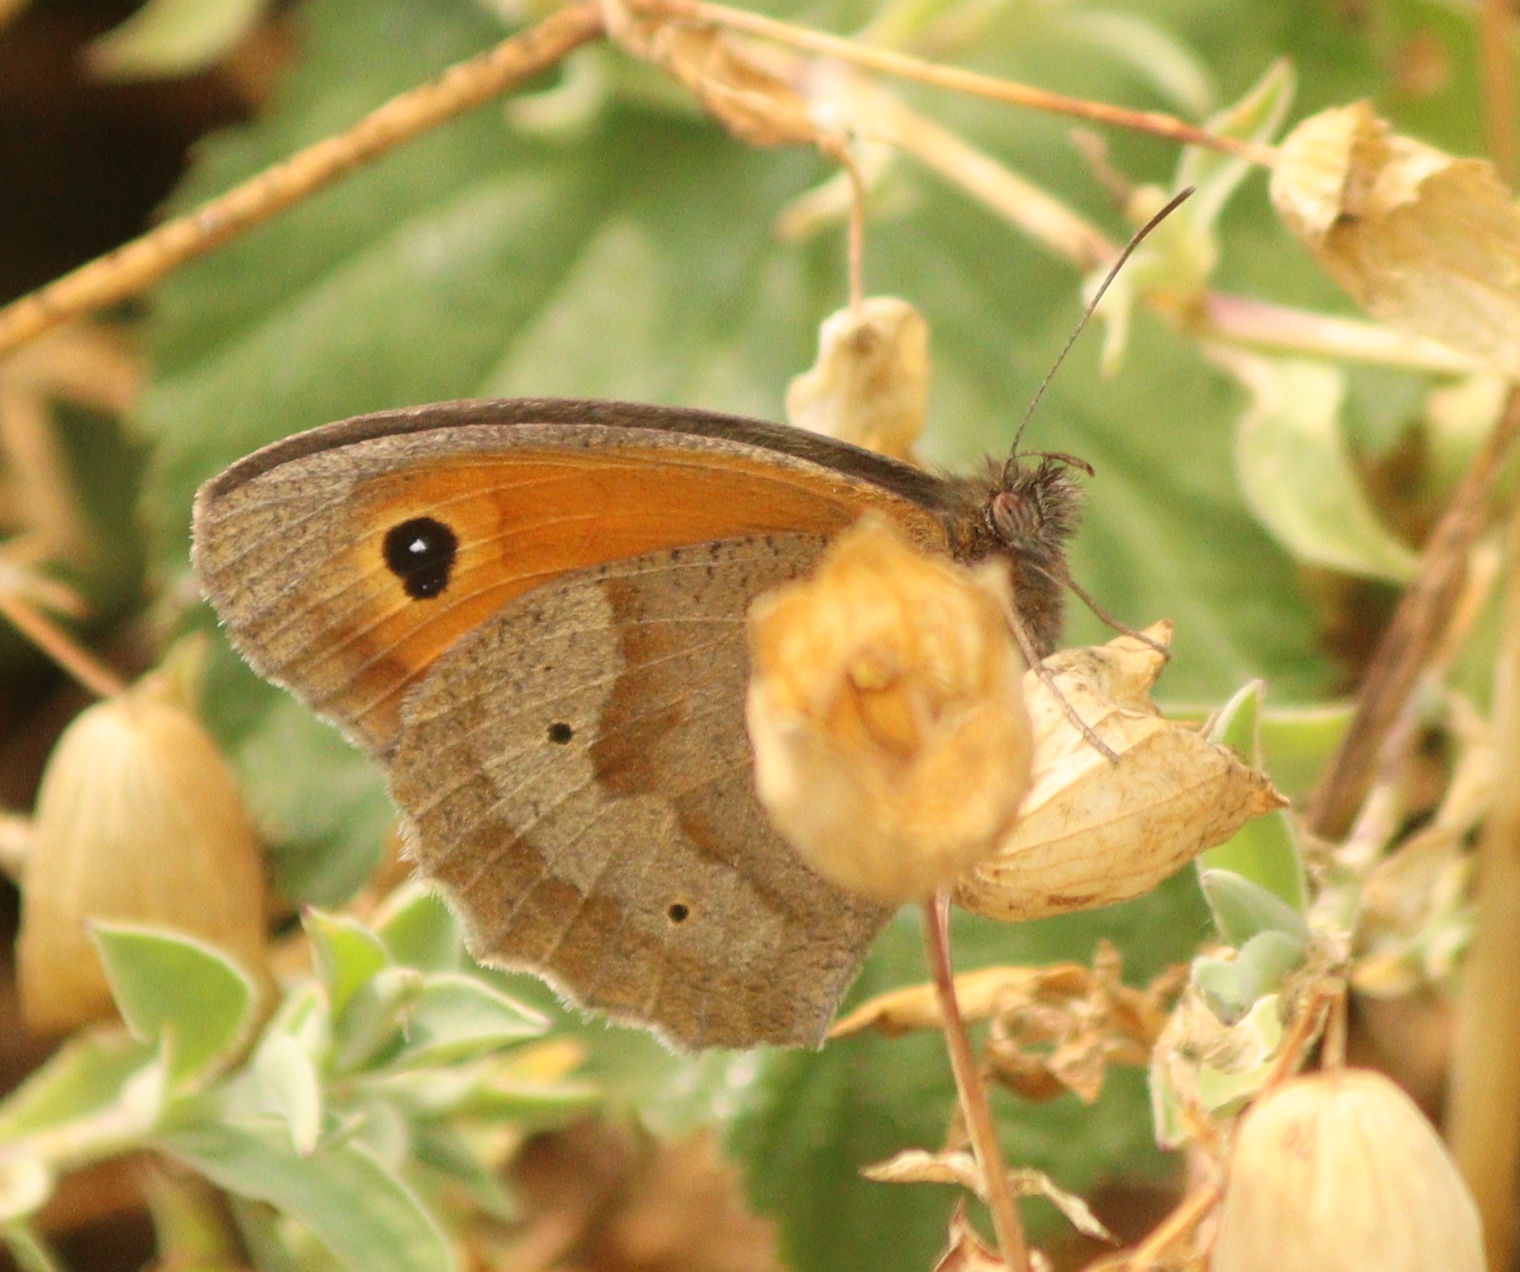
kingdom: Animalia
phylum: Arthropoda
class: Insecta
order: Lepidoptera
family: Nymphalidae
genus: Maniola
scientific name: Maniola jurtina
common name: Meadow brown
